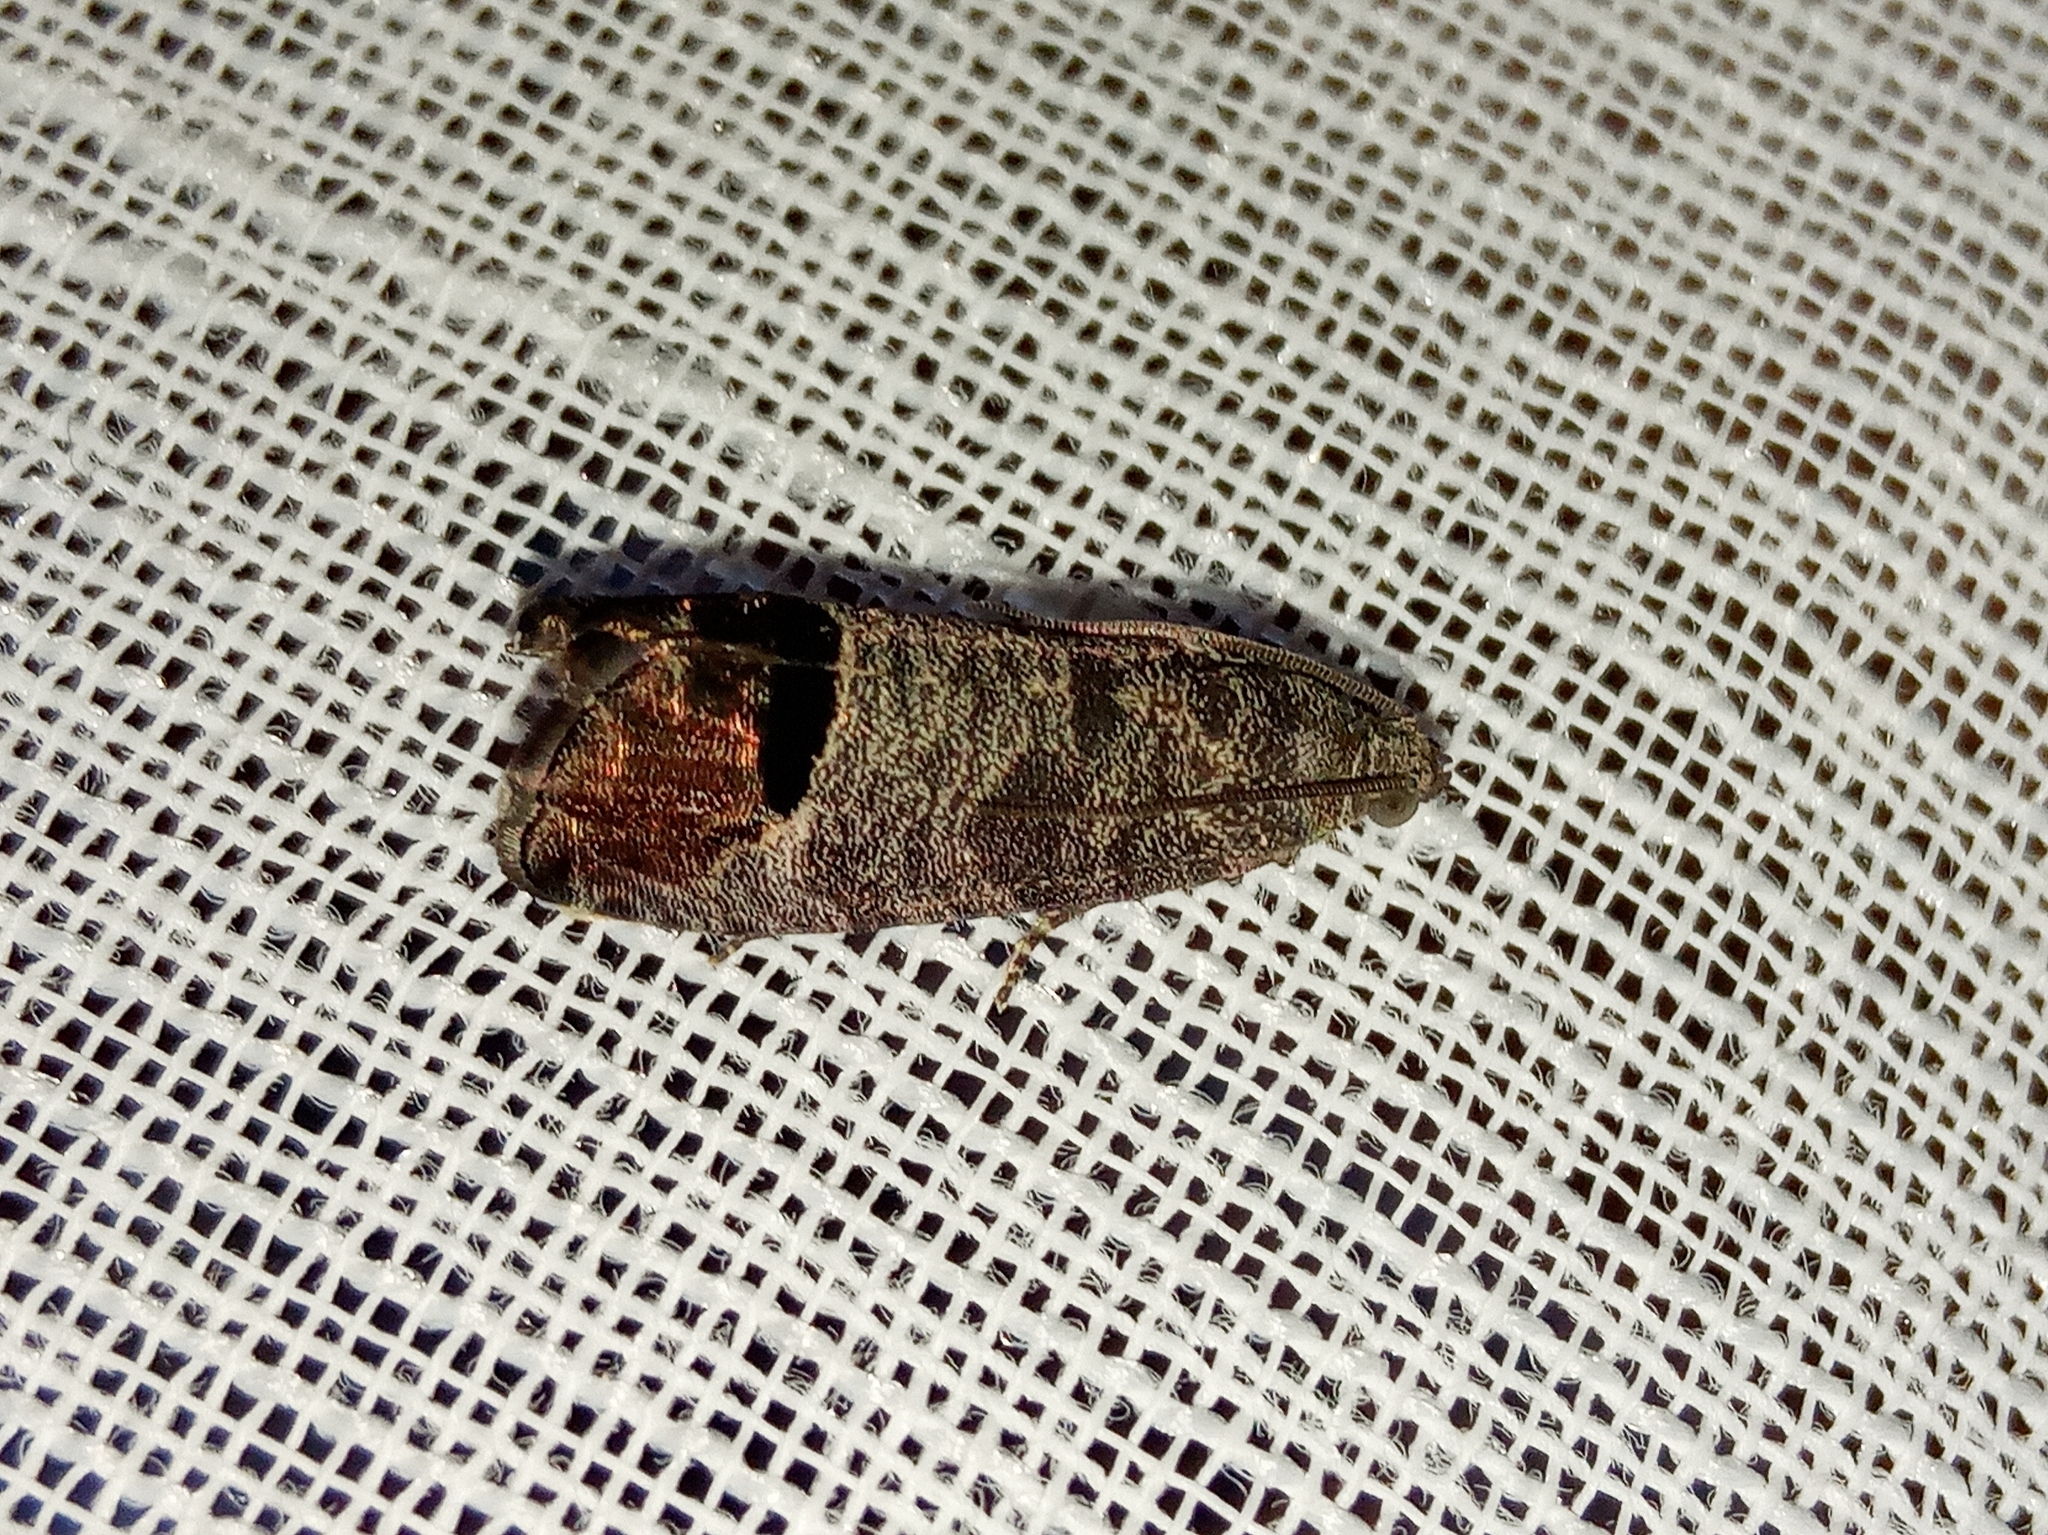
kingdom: Animalia
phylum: Arthropoda
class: Insecta
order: Lepidoptera
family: Tortricidae
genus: Cydia
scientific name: Cydia pomonella
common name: Codling moth
